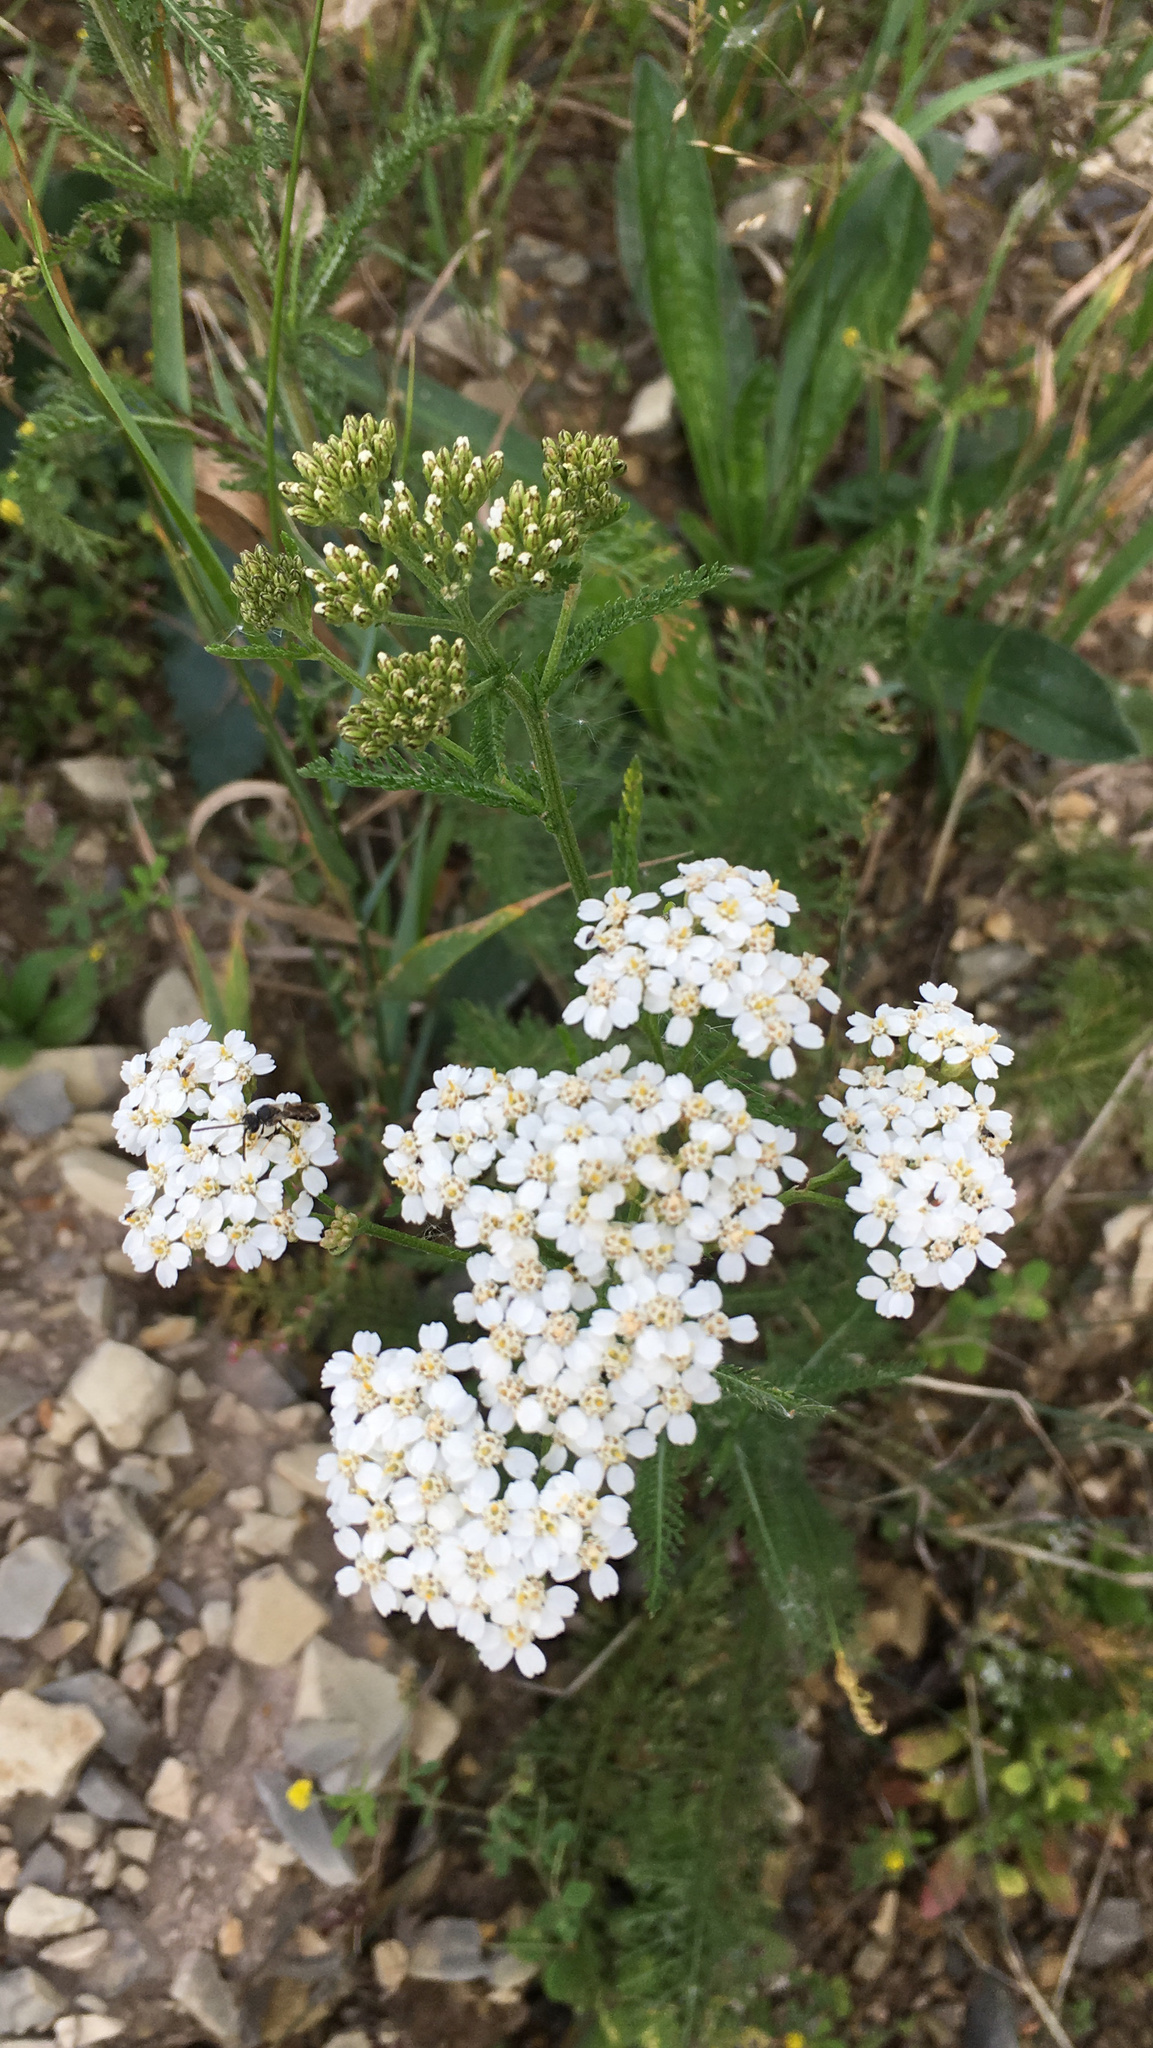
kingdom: Plantae
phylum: Tracheophyta
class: Magnoliopsida
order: Asterales
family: Asteraceae
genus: Achillea
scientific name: Achillea millefolium
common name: Yarrow
